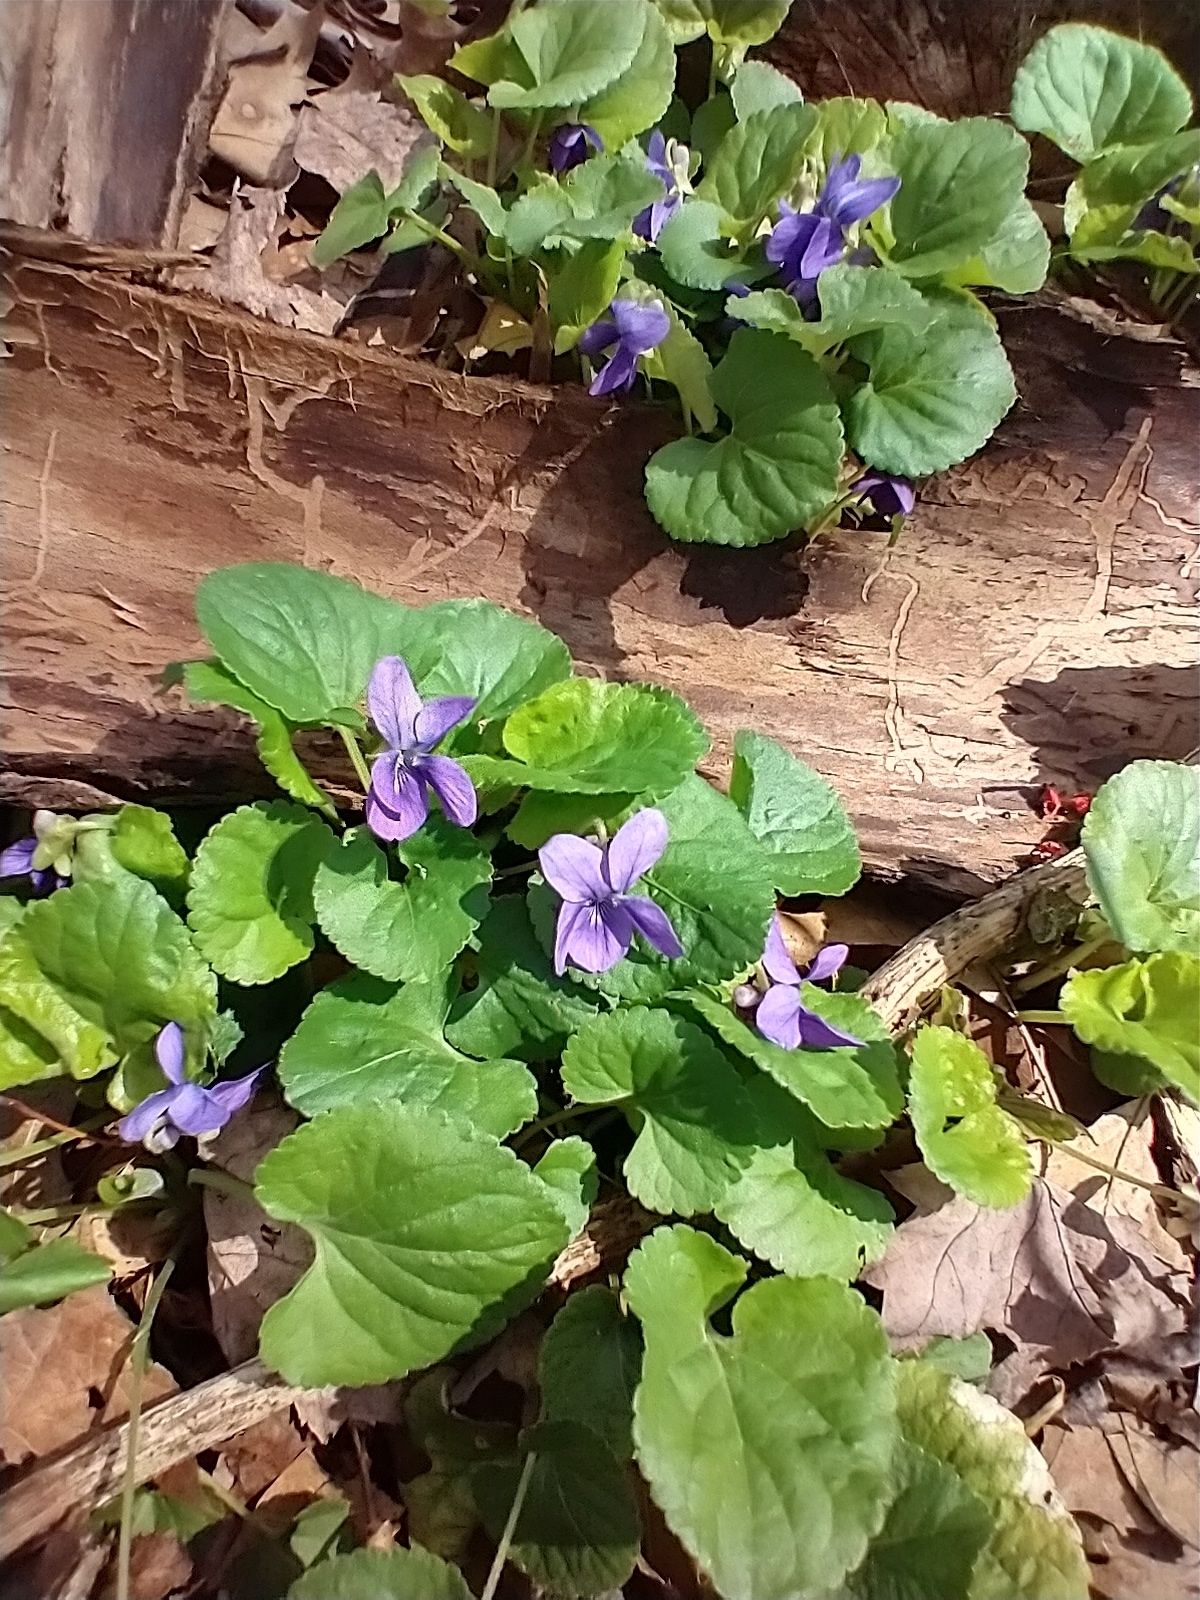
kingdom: Plantae
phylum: Tracheophyta
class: Magnoliopsida
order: Malpighiales
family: Violaceae
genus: Viola
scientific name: Viola odorata
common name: Sweet violet
